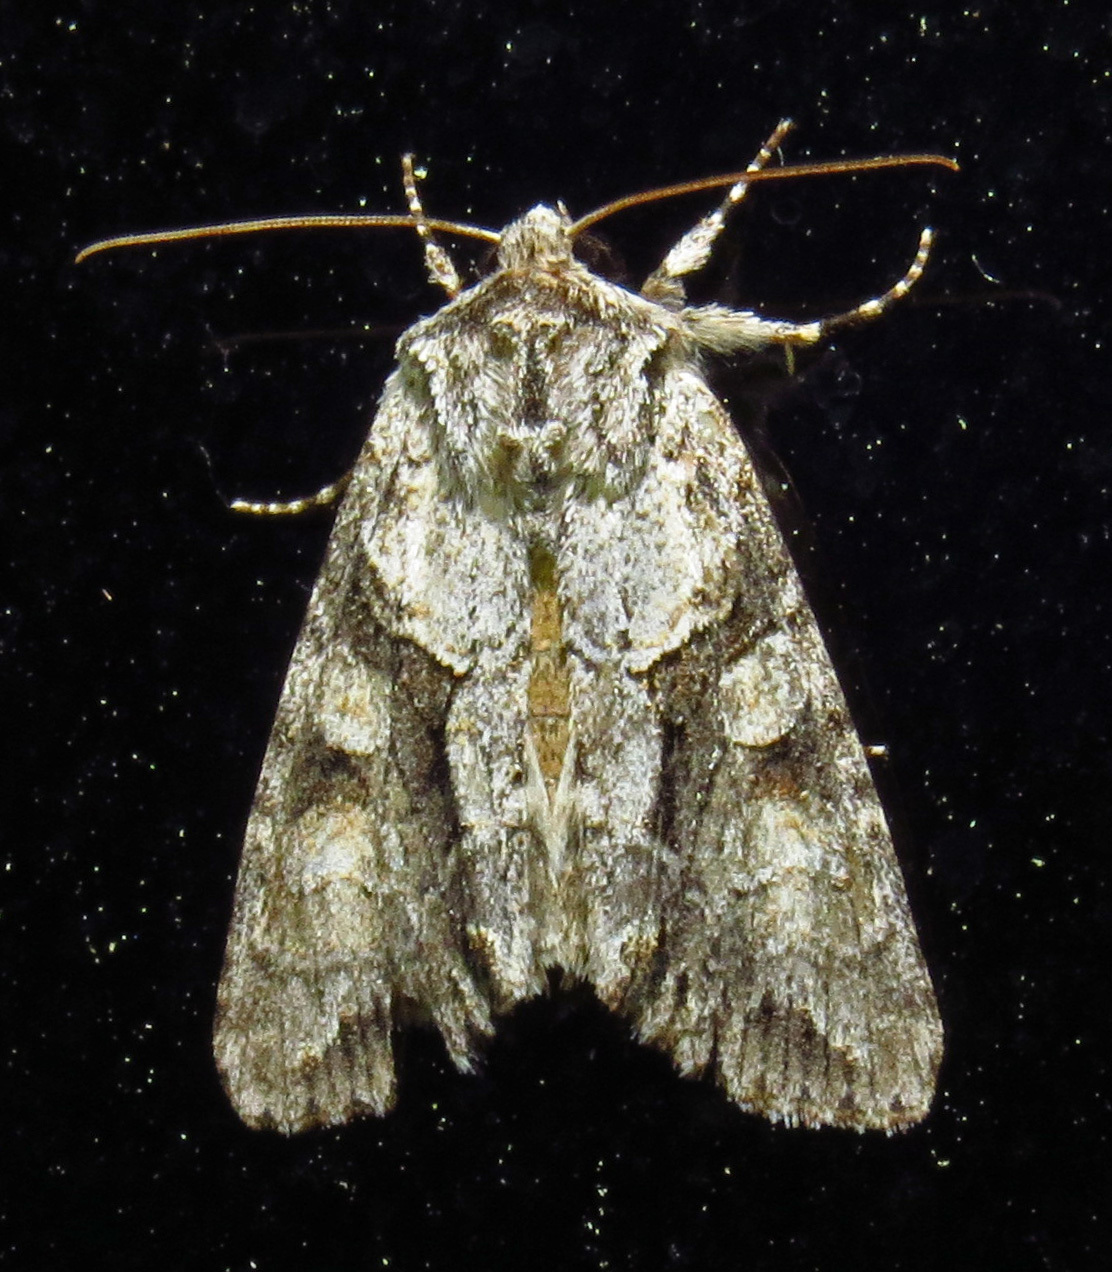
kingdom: Animalia
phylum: Arthropoda
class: Insecta
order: Lepidoptera
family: Noctuidae
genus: Achatia
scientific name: Achatia distincta
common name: Distinct quaker
